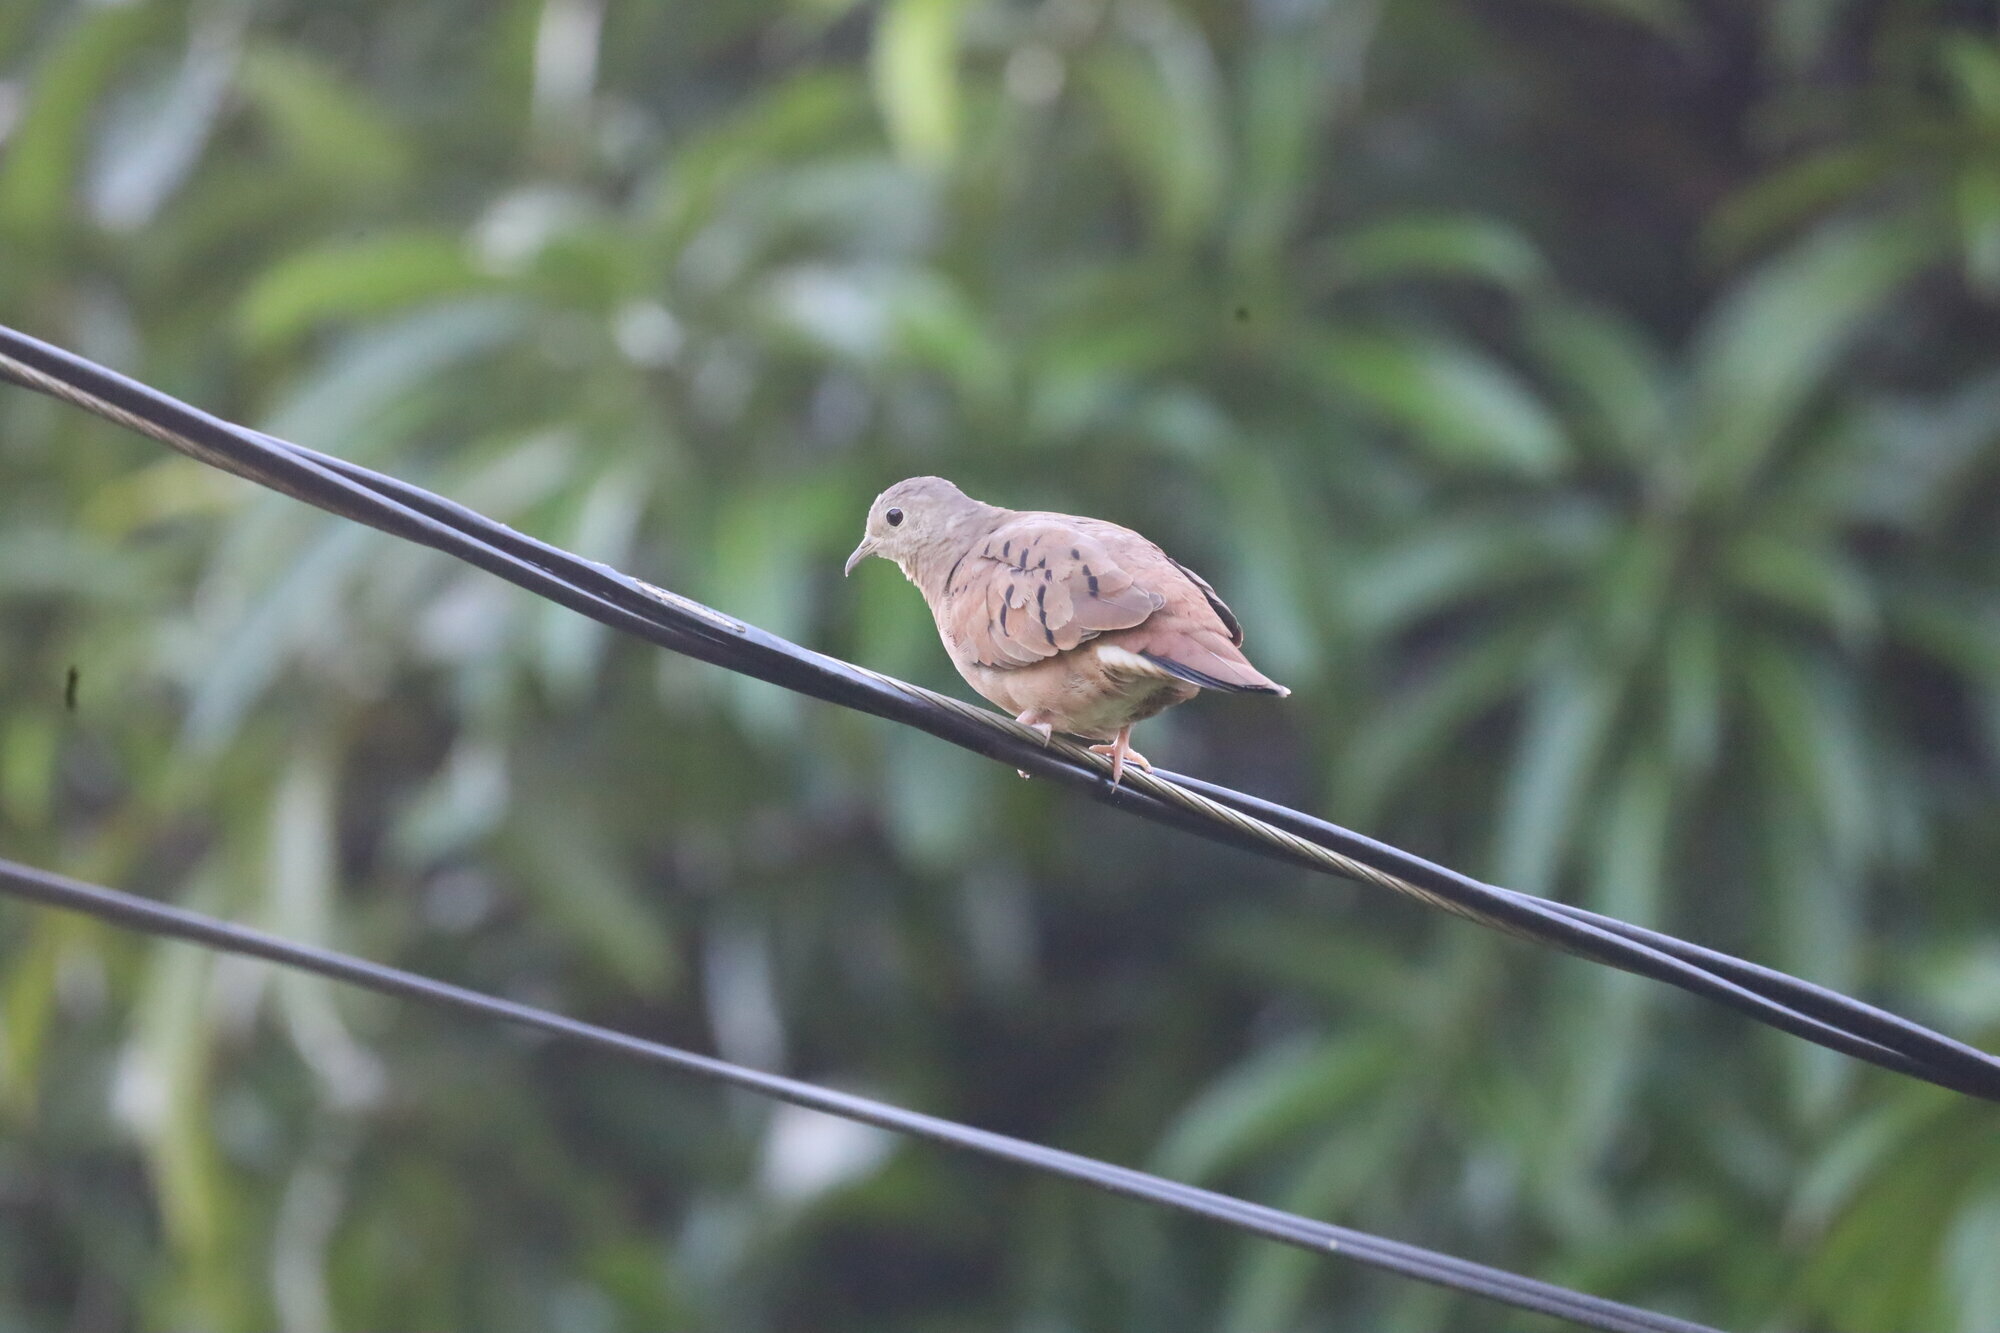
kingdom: Animalia
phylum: Chordata
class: Aves
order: Columbiformes
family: Columbidae
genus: Columbina
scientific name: Columbina talpacoti
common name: Ruddy ground dove
